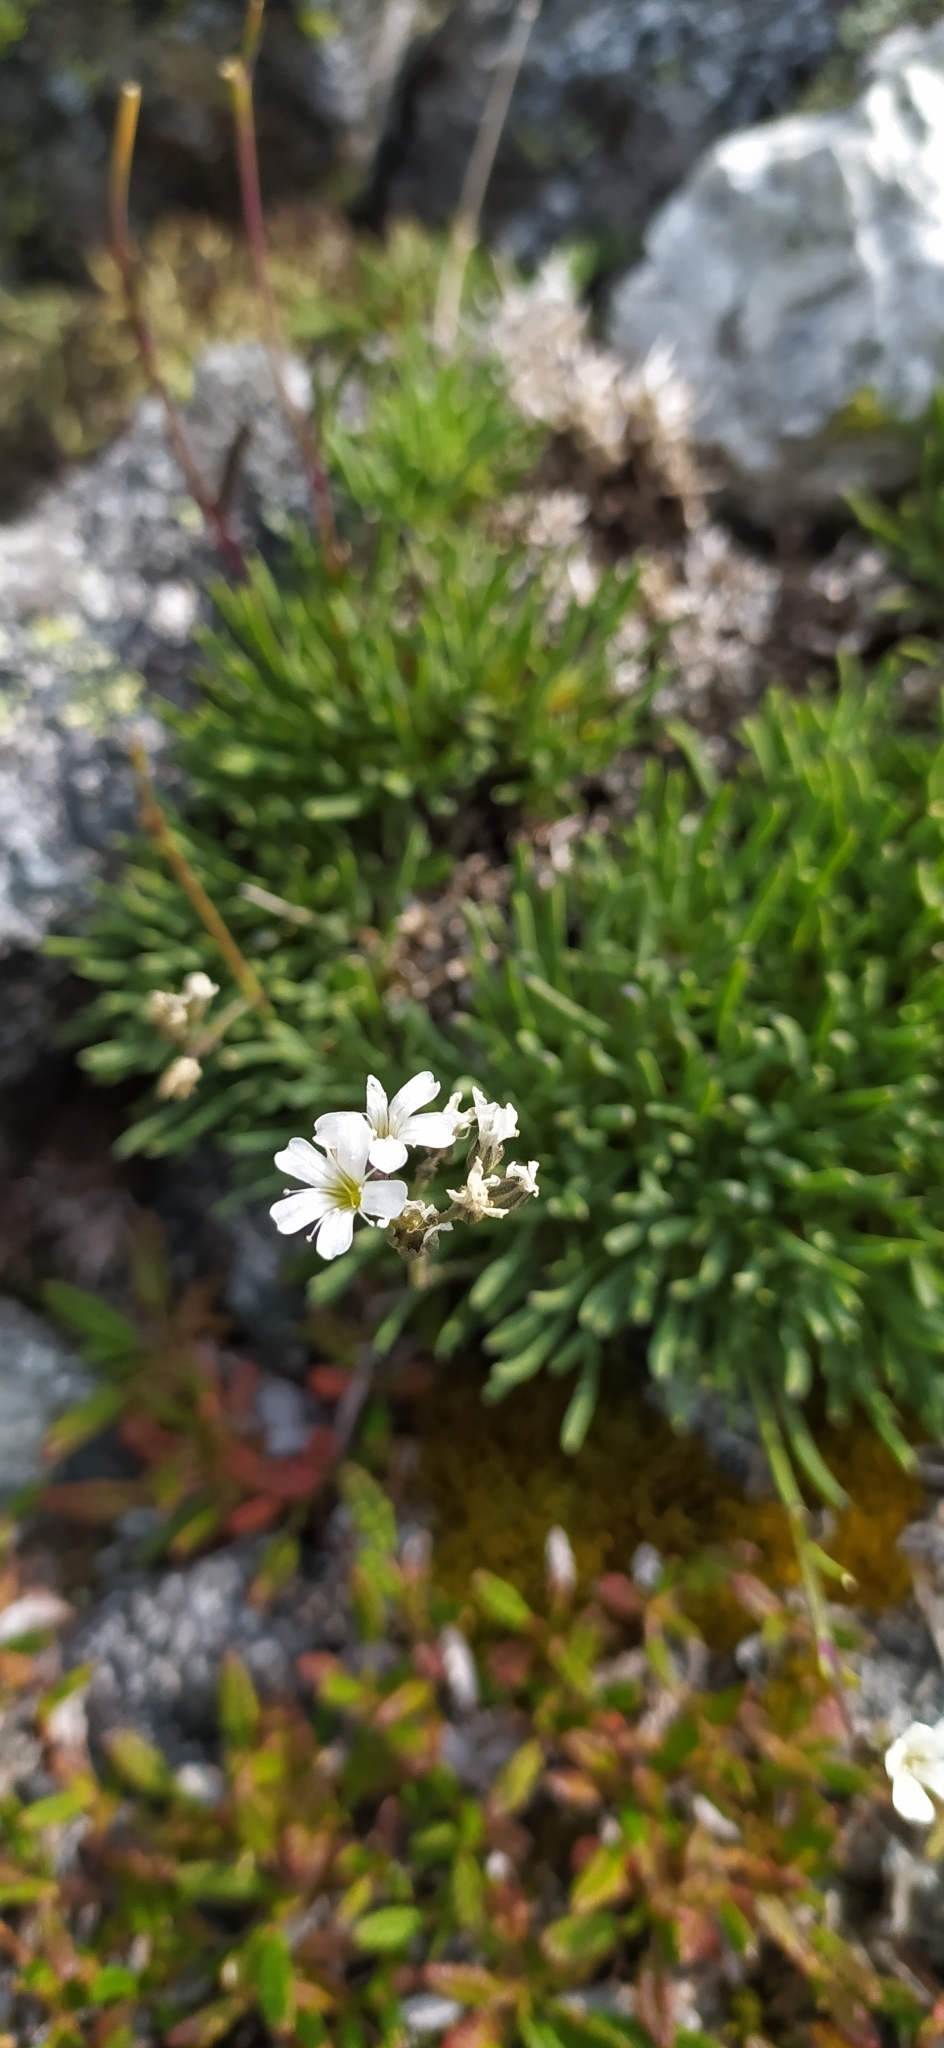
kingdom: Plantae
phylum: Tracheophyta
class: Magnoliopsida
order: Caryophyllales
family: Caryophyllaceae
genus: Gypsophila
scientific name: Gypsophila uralensis
